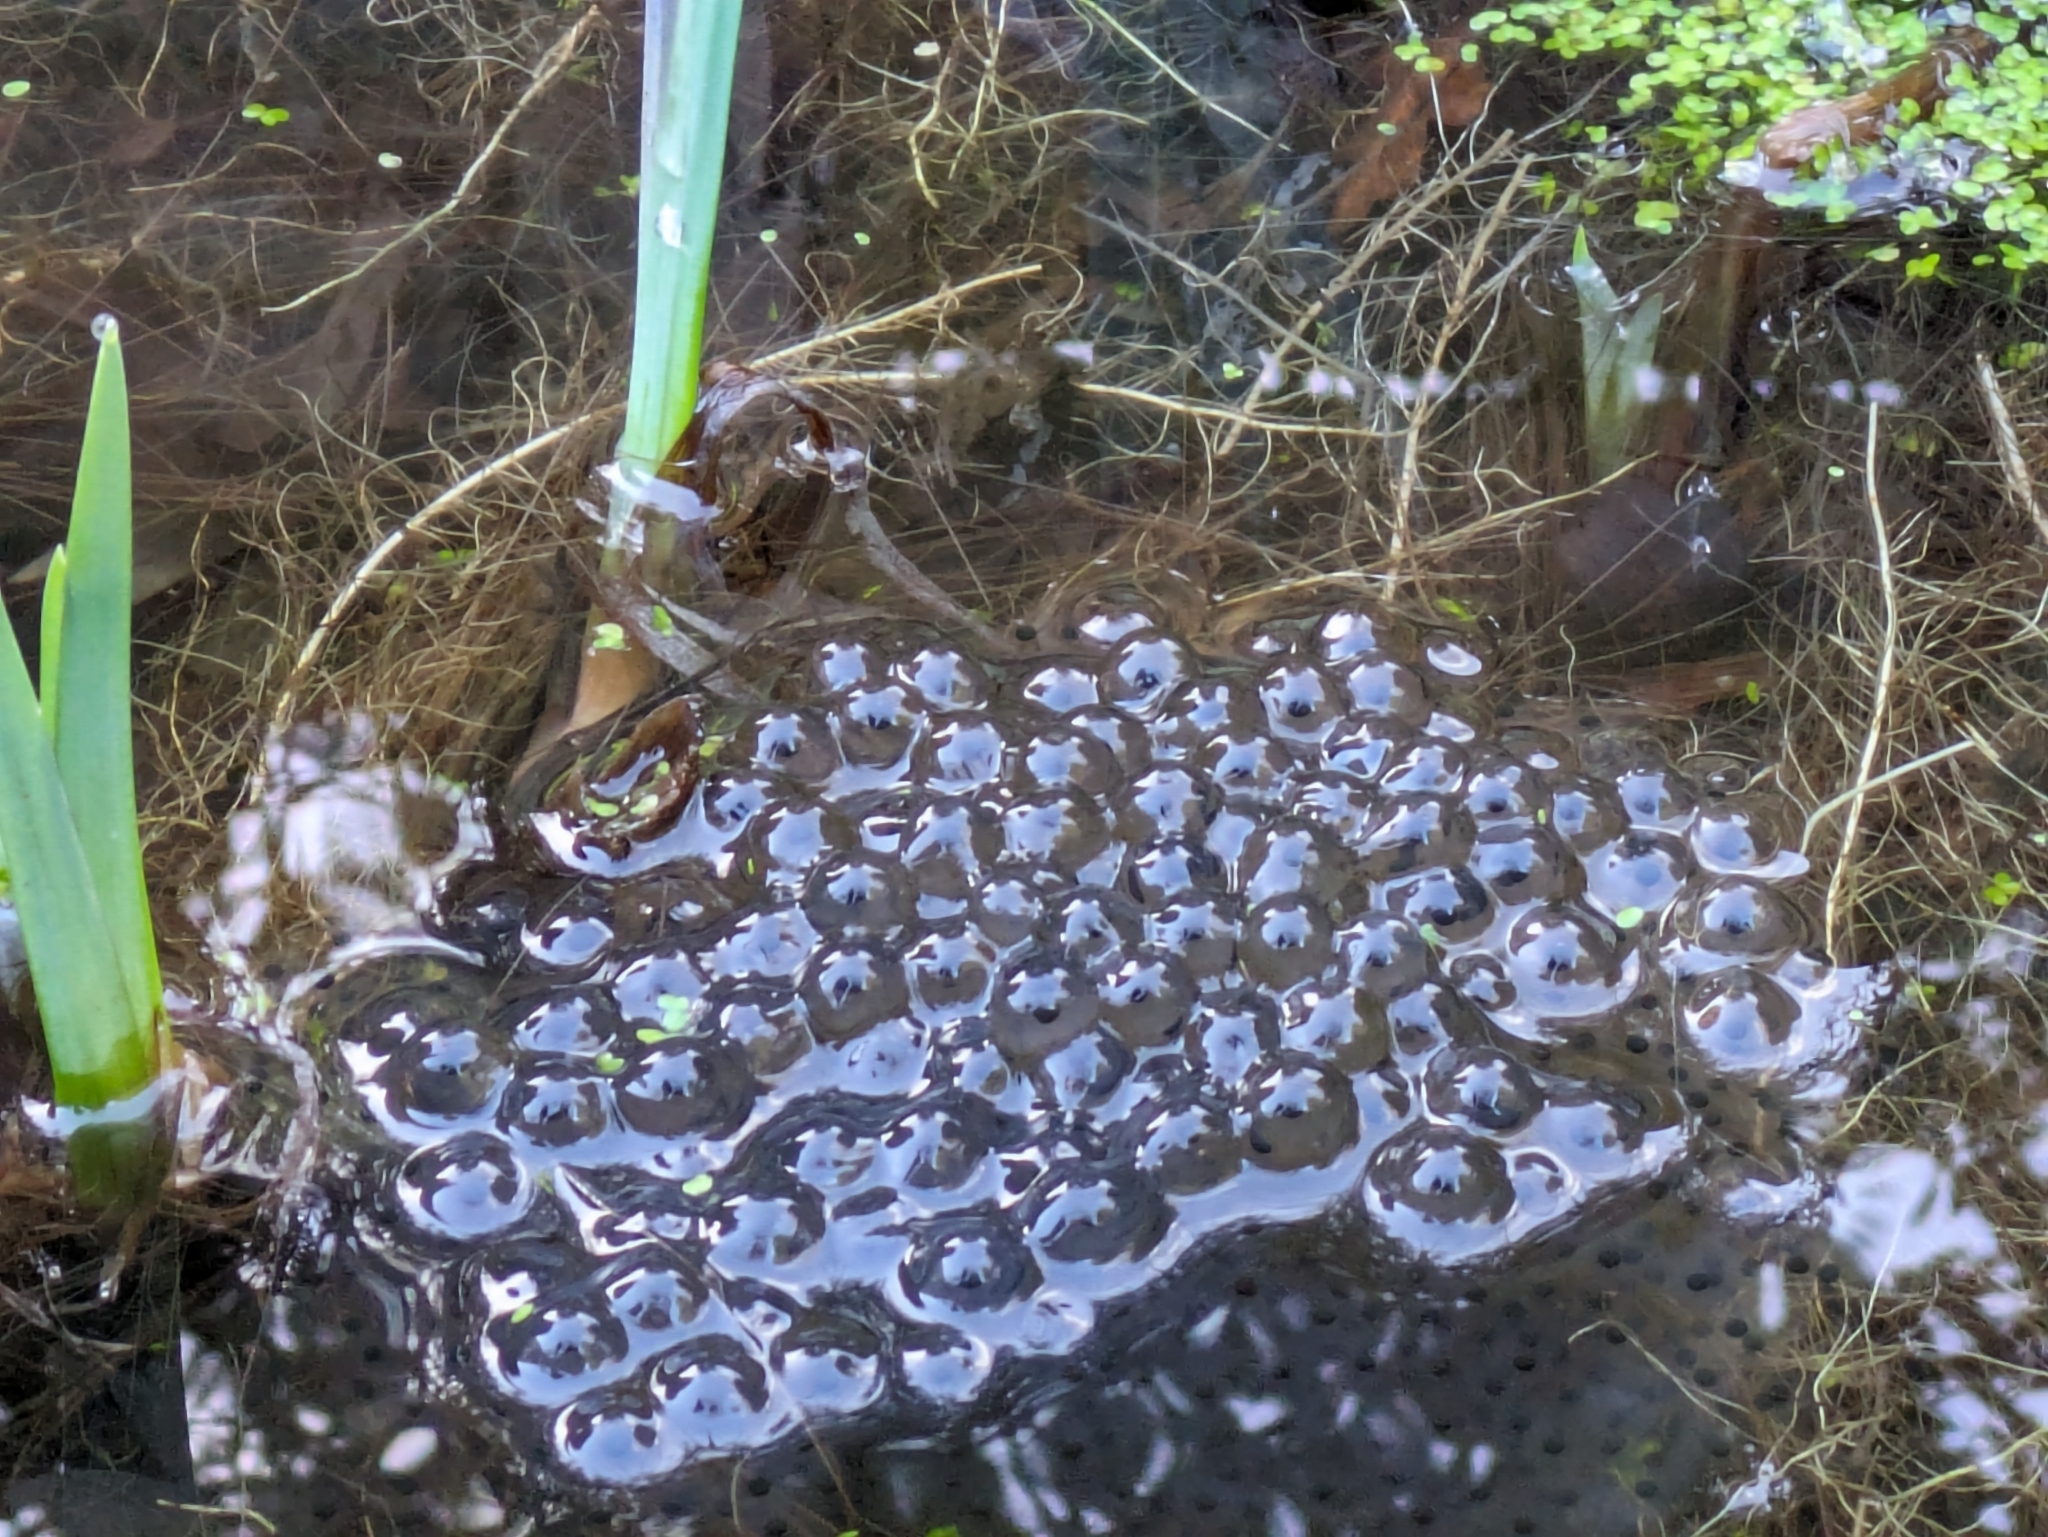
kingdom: Animalia
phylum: Chordata
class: Amphibia
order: Anura
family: Ranidae
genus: Rana
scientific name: Rana temporaria
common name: Common frog
